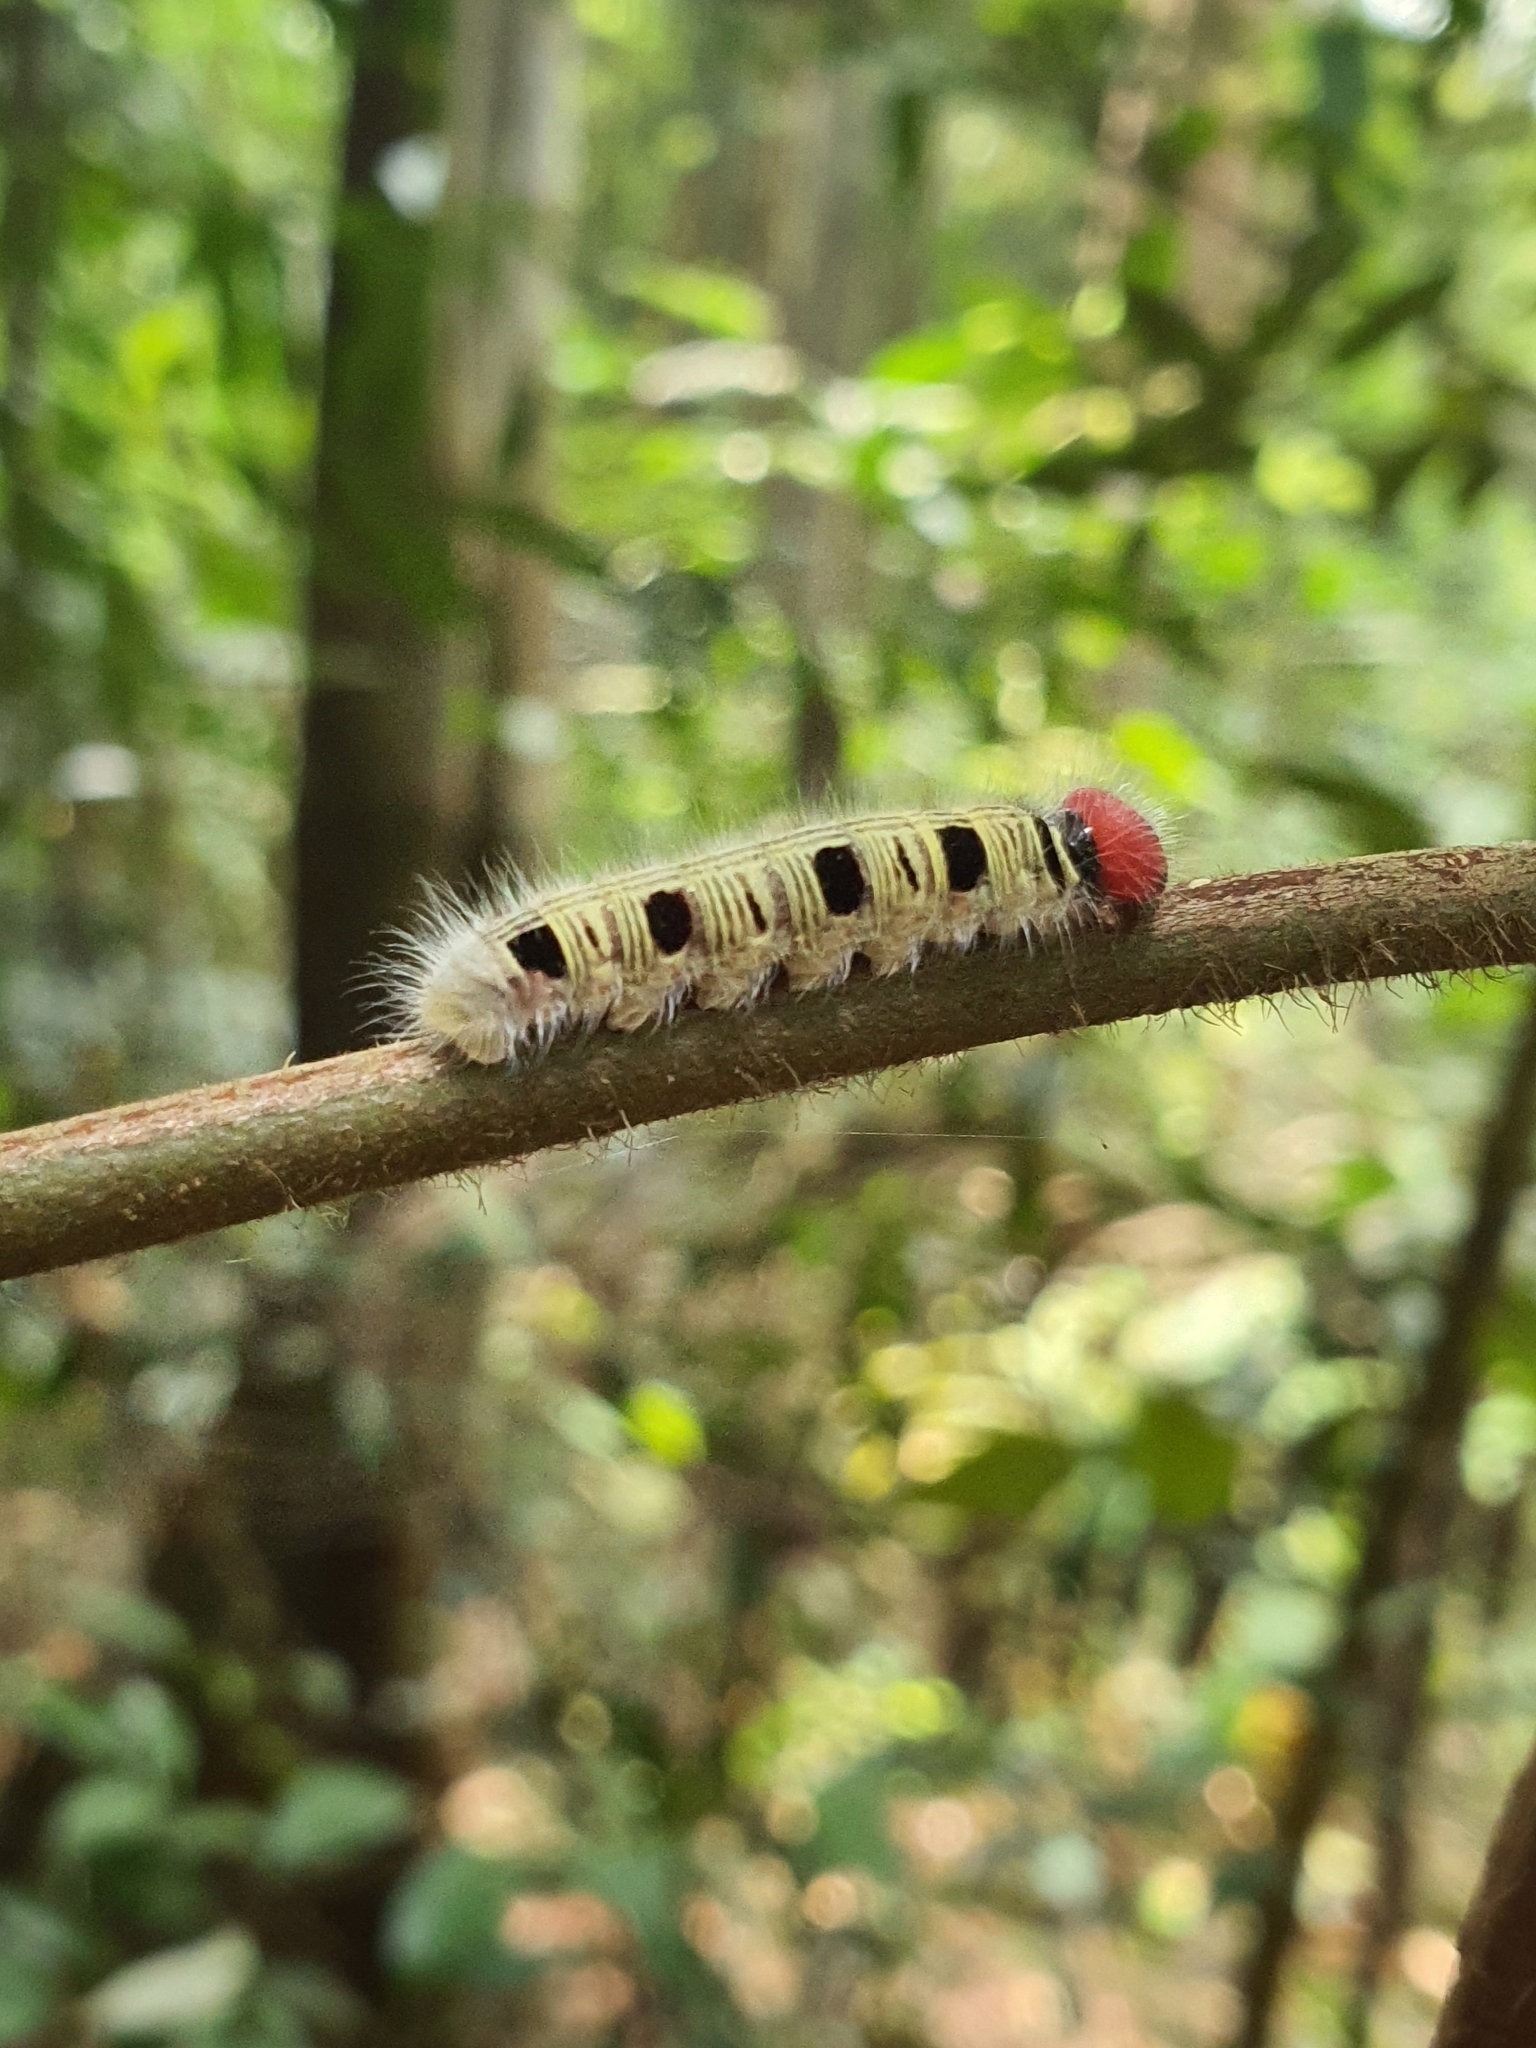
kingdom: Animalia
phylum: Arthropoda
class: Insecta
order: Lepidoptera
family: Hesperiidae
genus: Hasora
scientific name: Hasora badra
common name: Common awl
